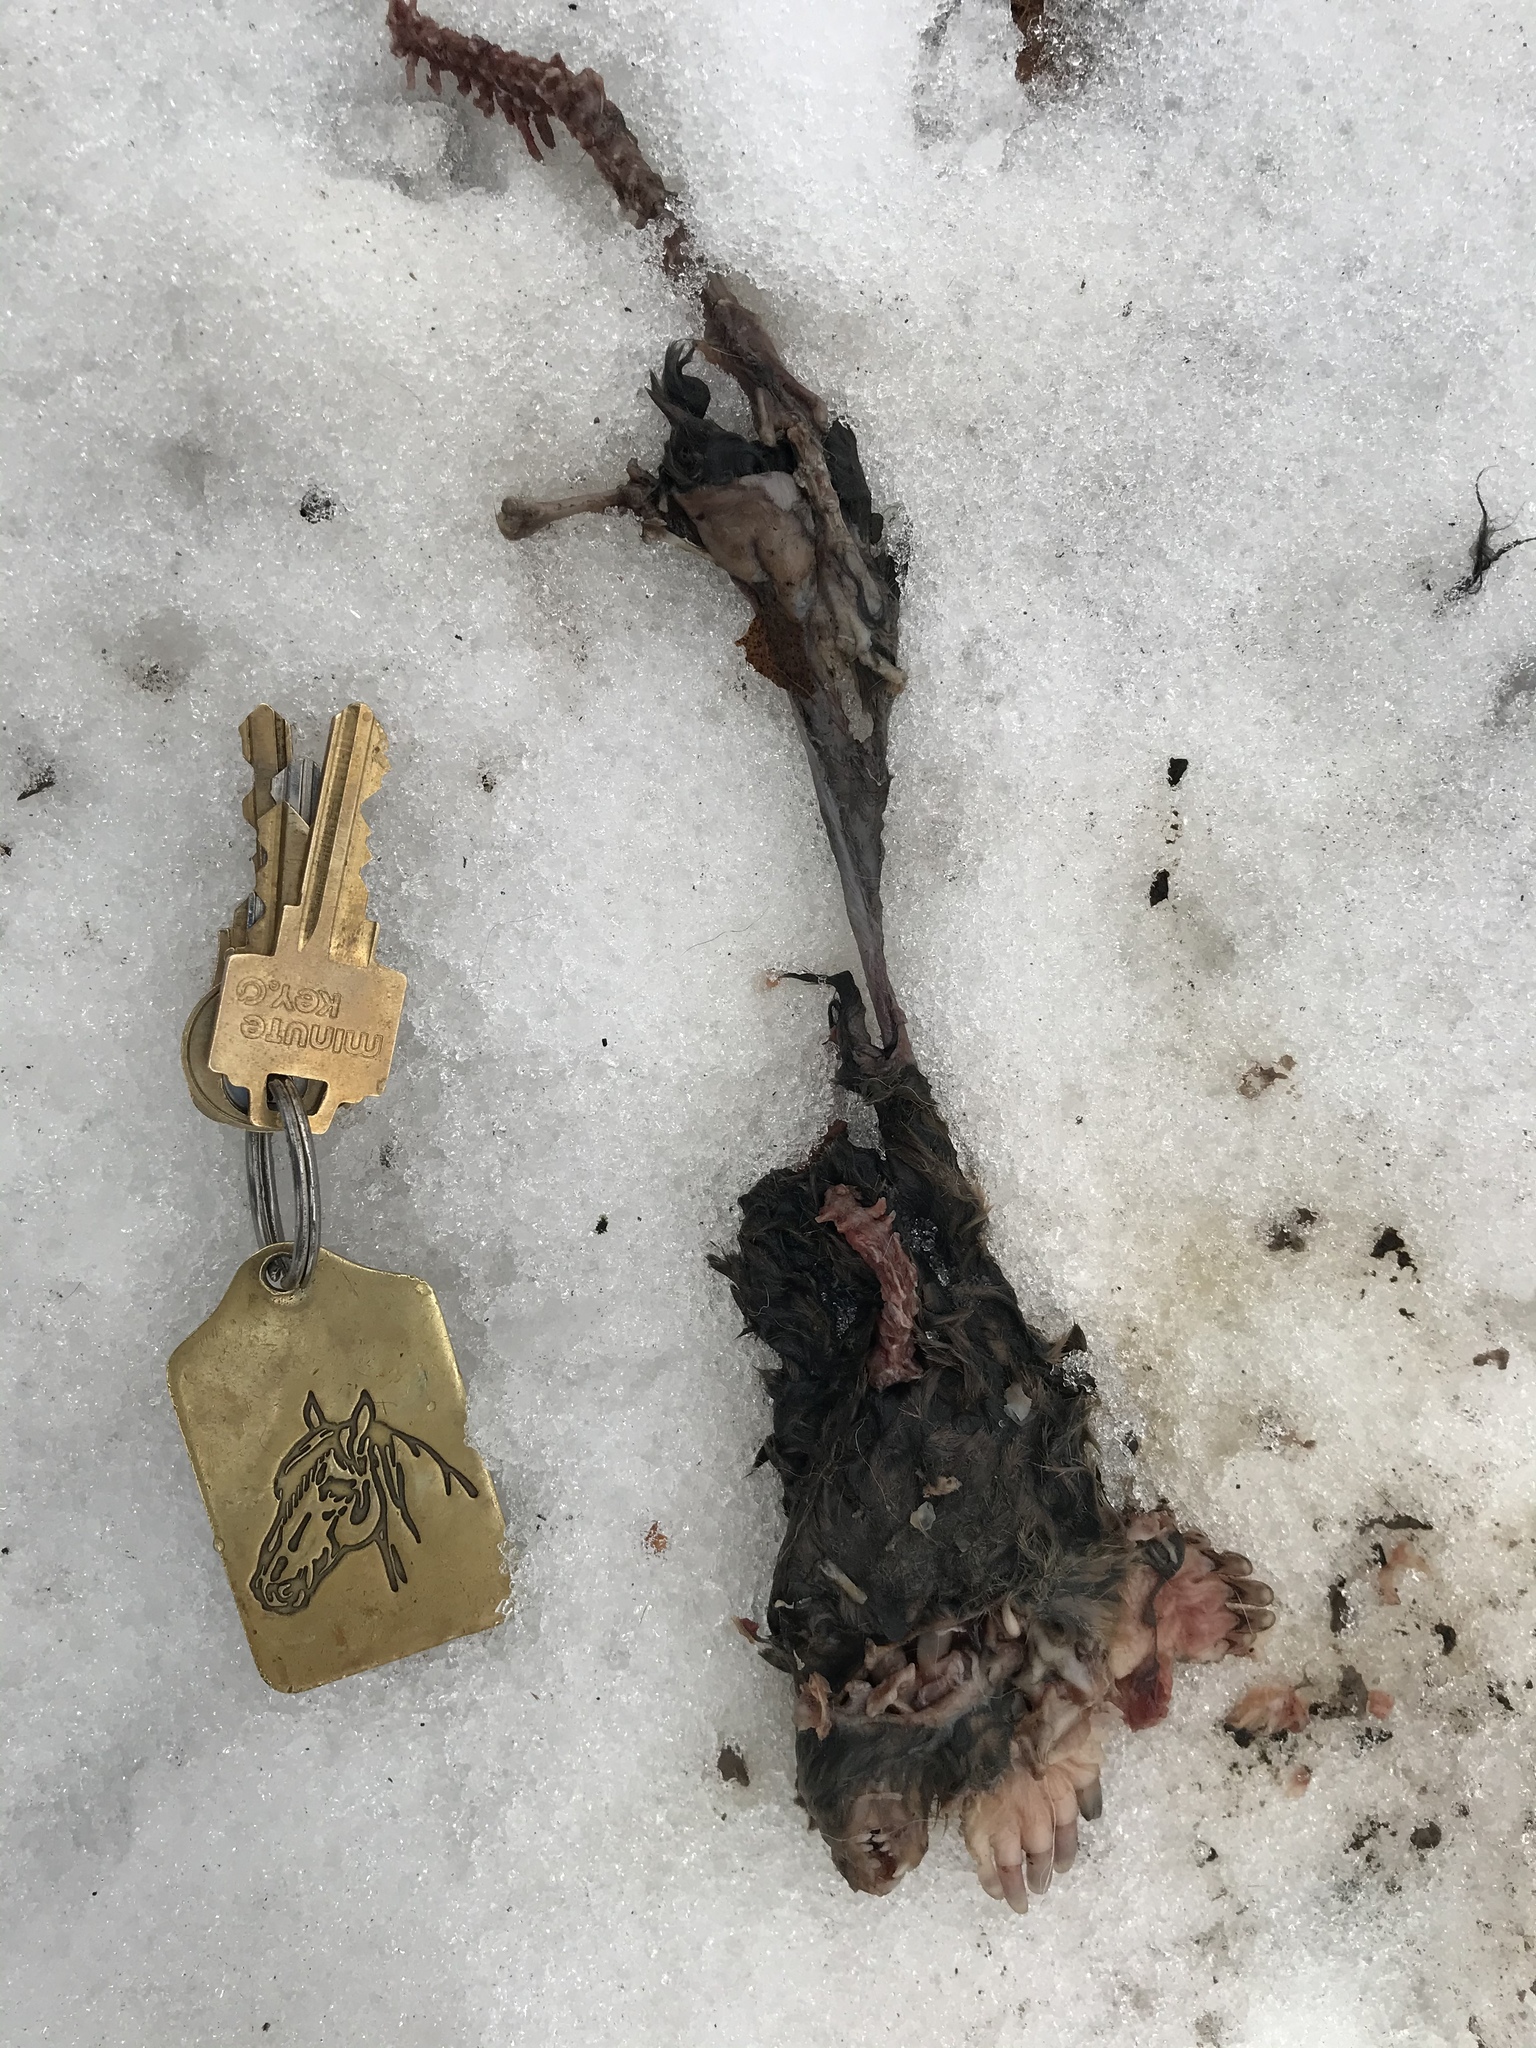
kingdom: Animalia
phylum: Chordata
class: Mammalia
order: Soricomorpha
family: Talpidae
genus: Scalopus
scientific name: Scalopus aquaticus
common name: Eastern mole
